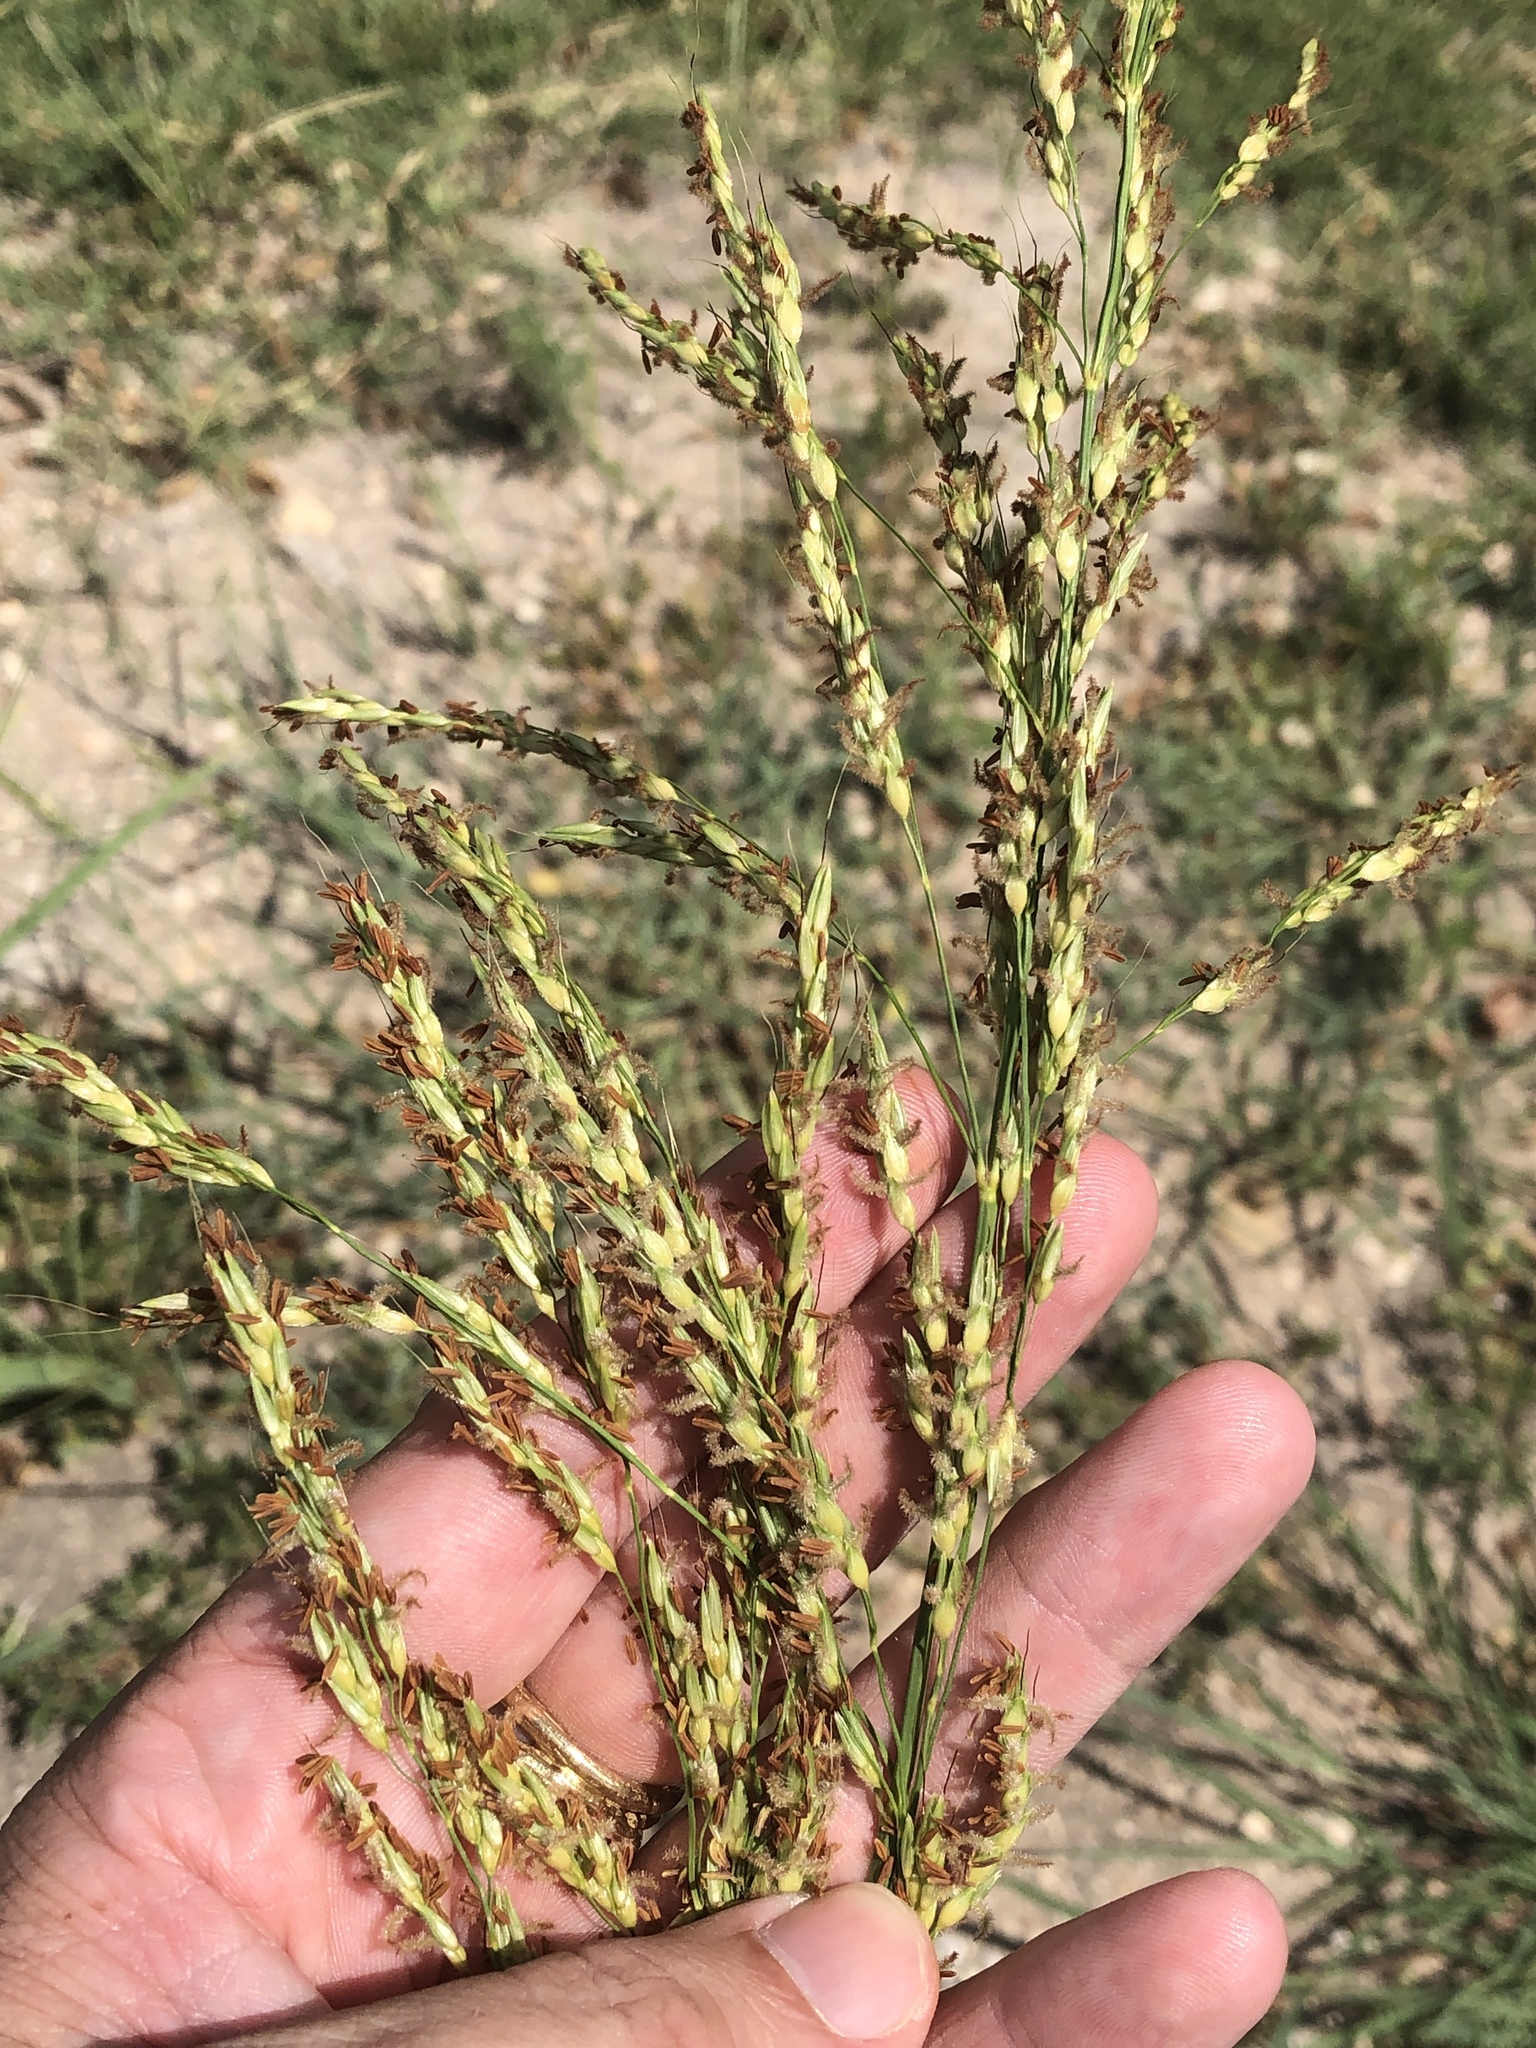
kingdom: Plantae
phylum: Tracheophyta
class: Liliopsida
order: Poales
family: Poaceae
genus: Sorghum
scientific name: Sorghum halepense
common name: Johnson-grass
